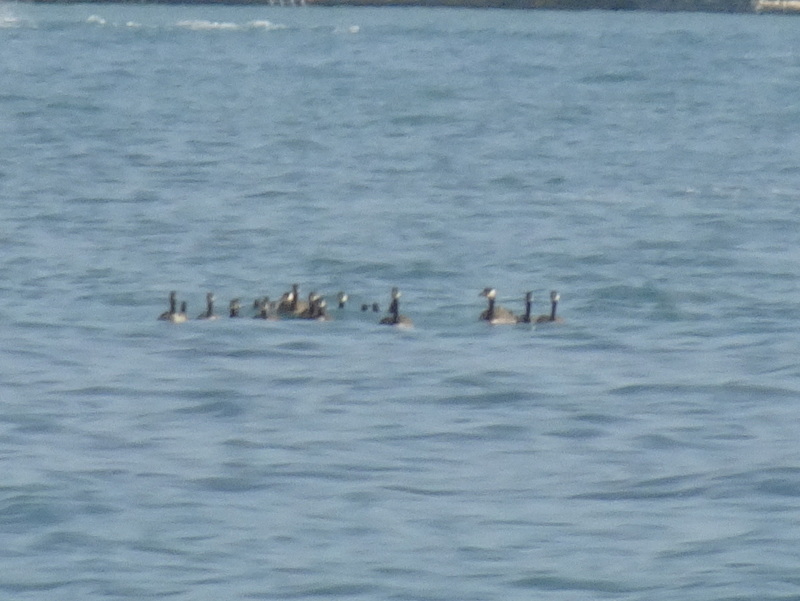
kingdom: Animalia
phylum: Chordata
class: Aves
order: Anseriformes
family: Anatidae
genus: Branta
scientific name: Branta canadensis
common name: Canada goose
